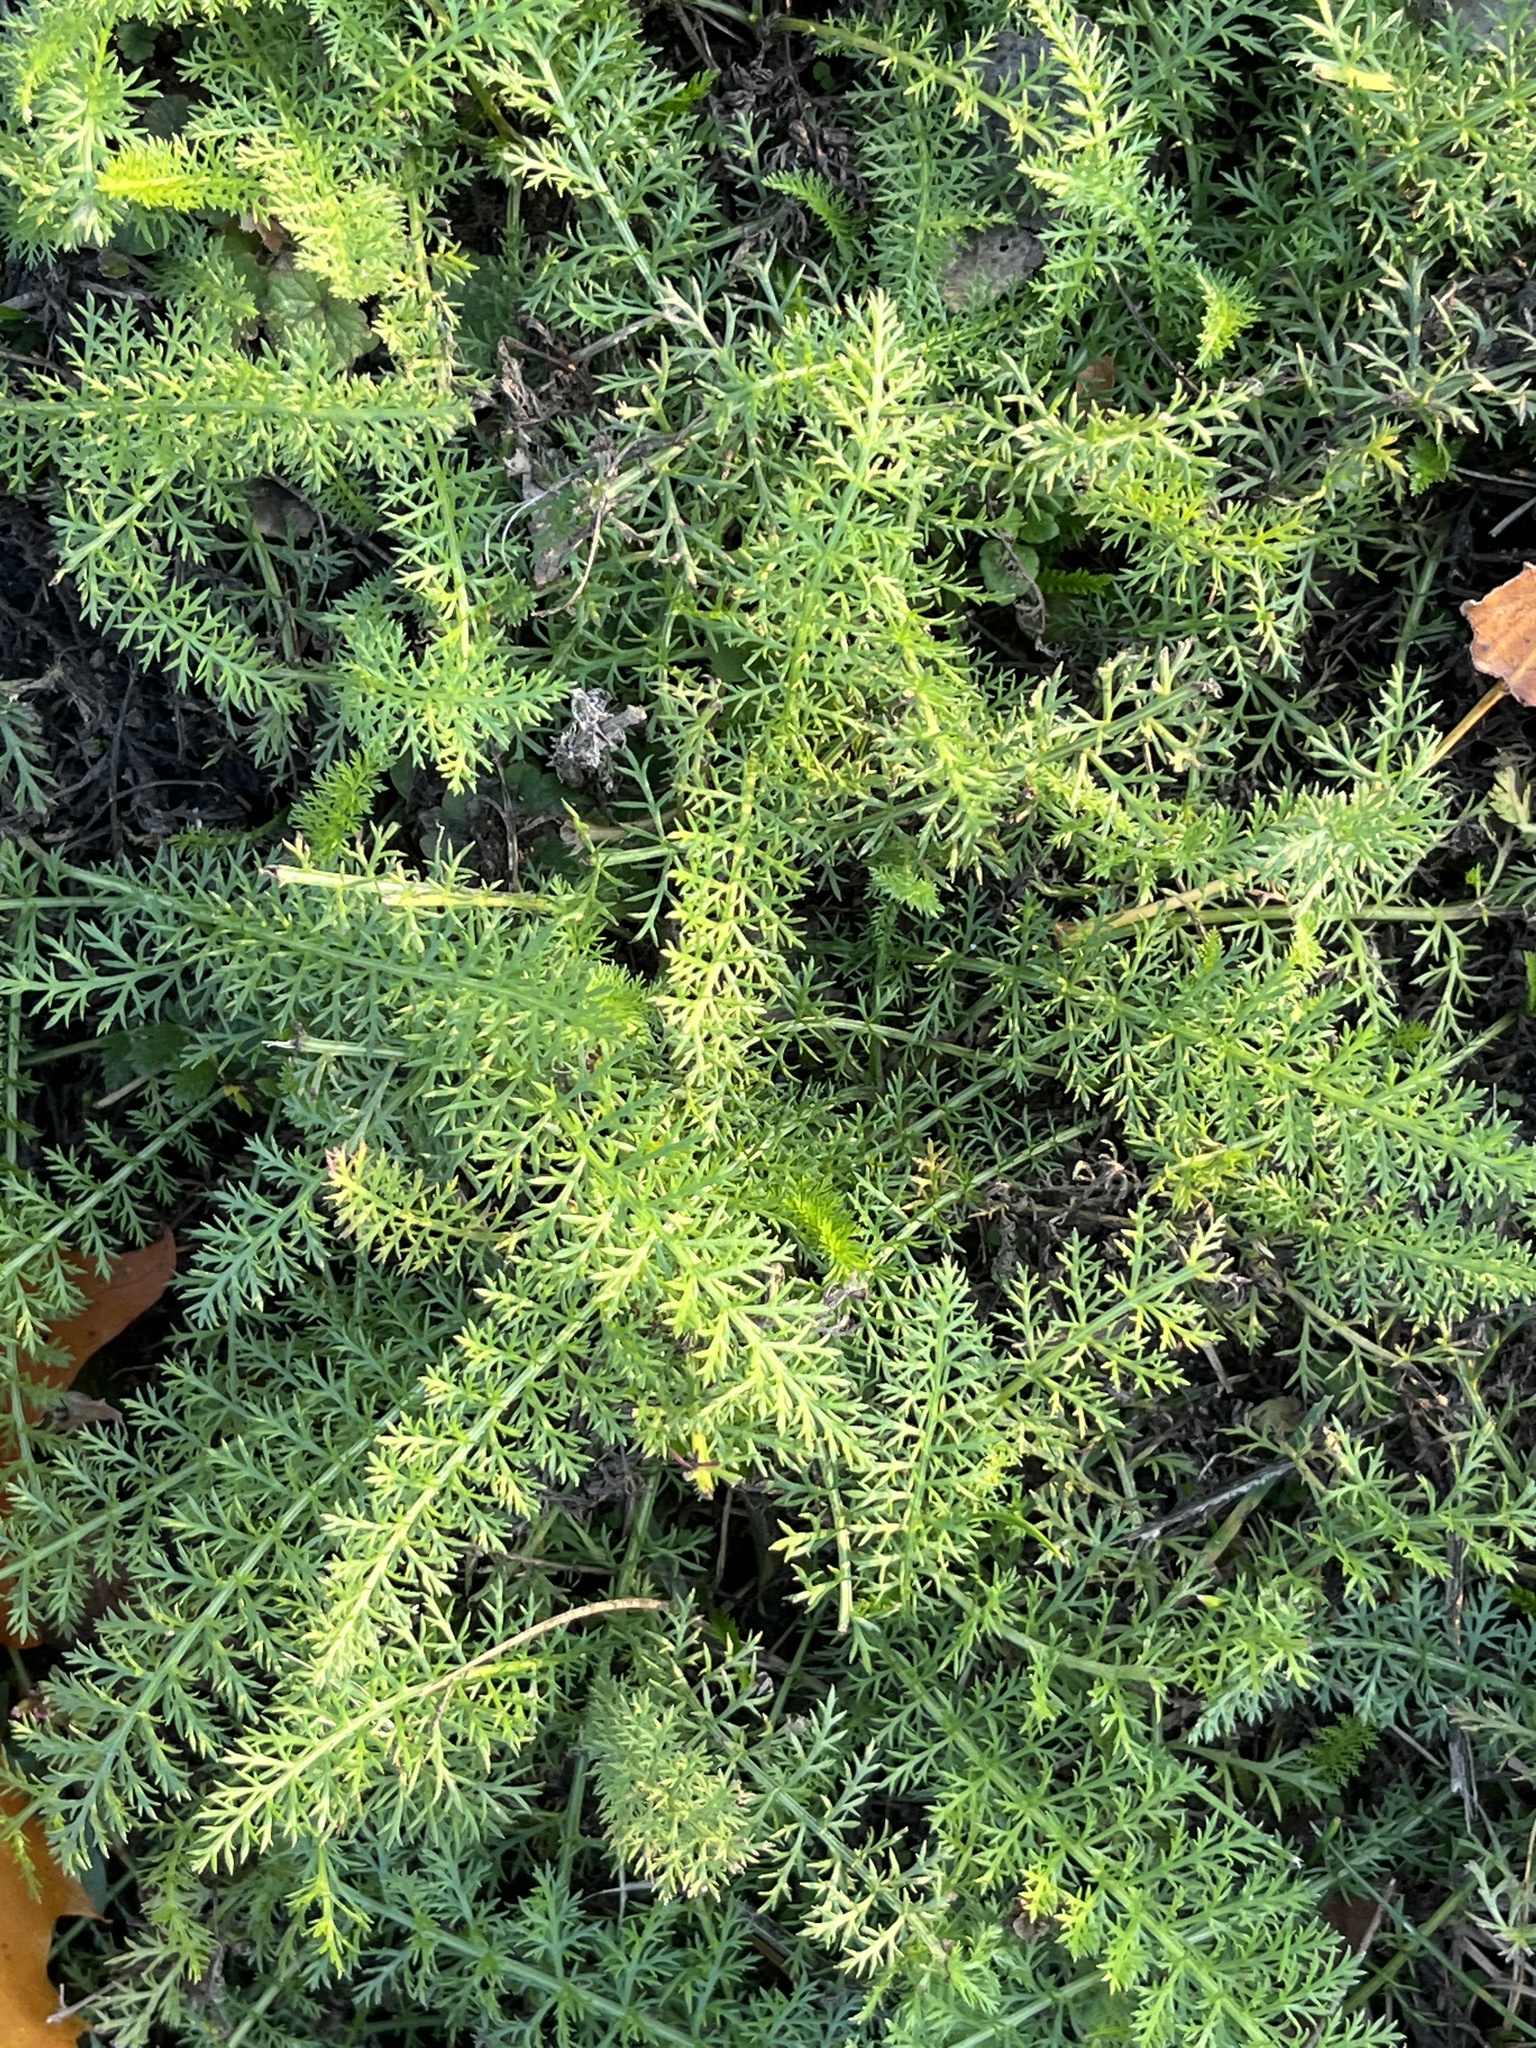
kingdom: Plantae
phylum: Tracheophyta
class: Magnoliopsida
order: Asterales
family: Asteraceae
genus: Achillea
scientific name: Achillea millefolium
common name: Yarrow
